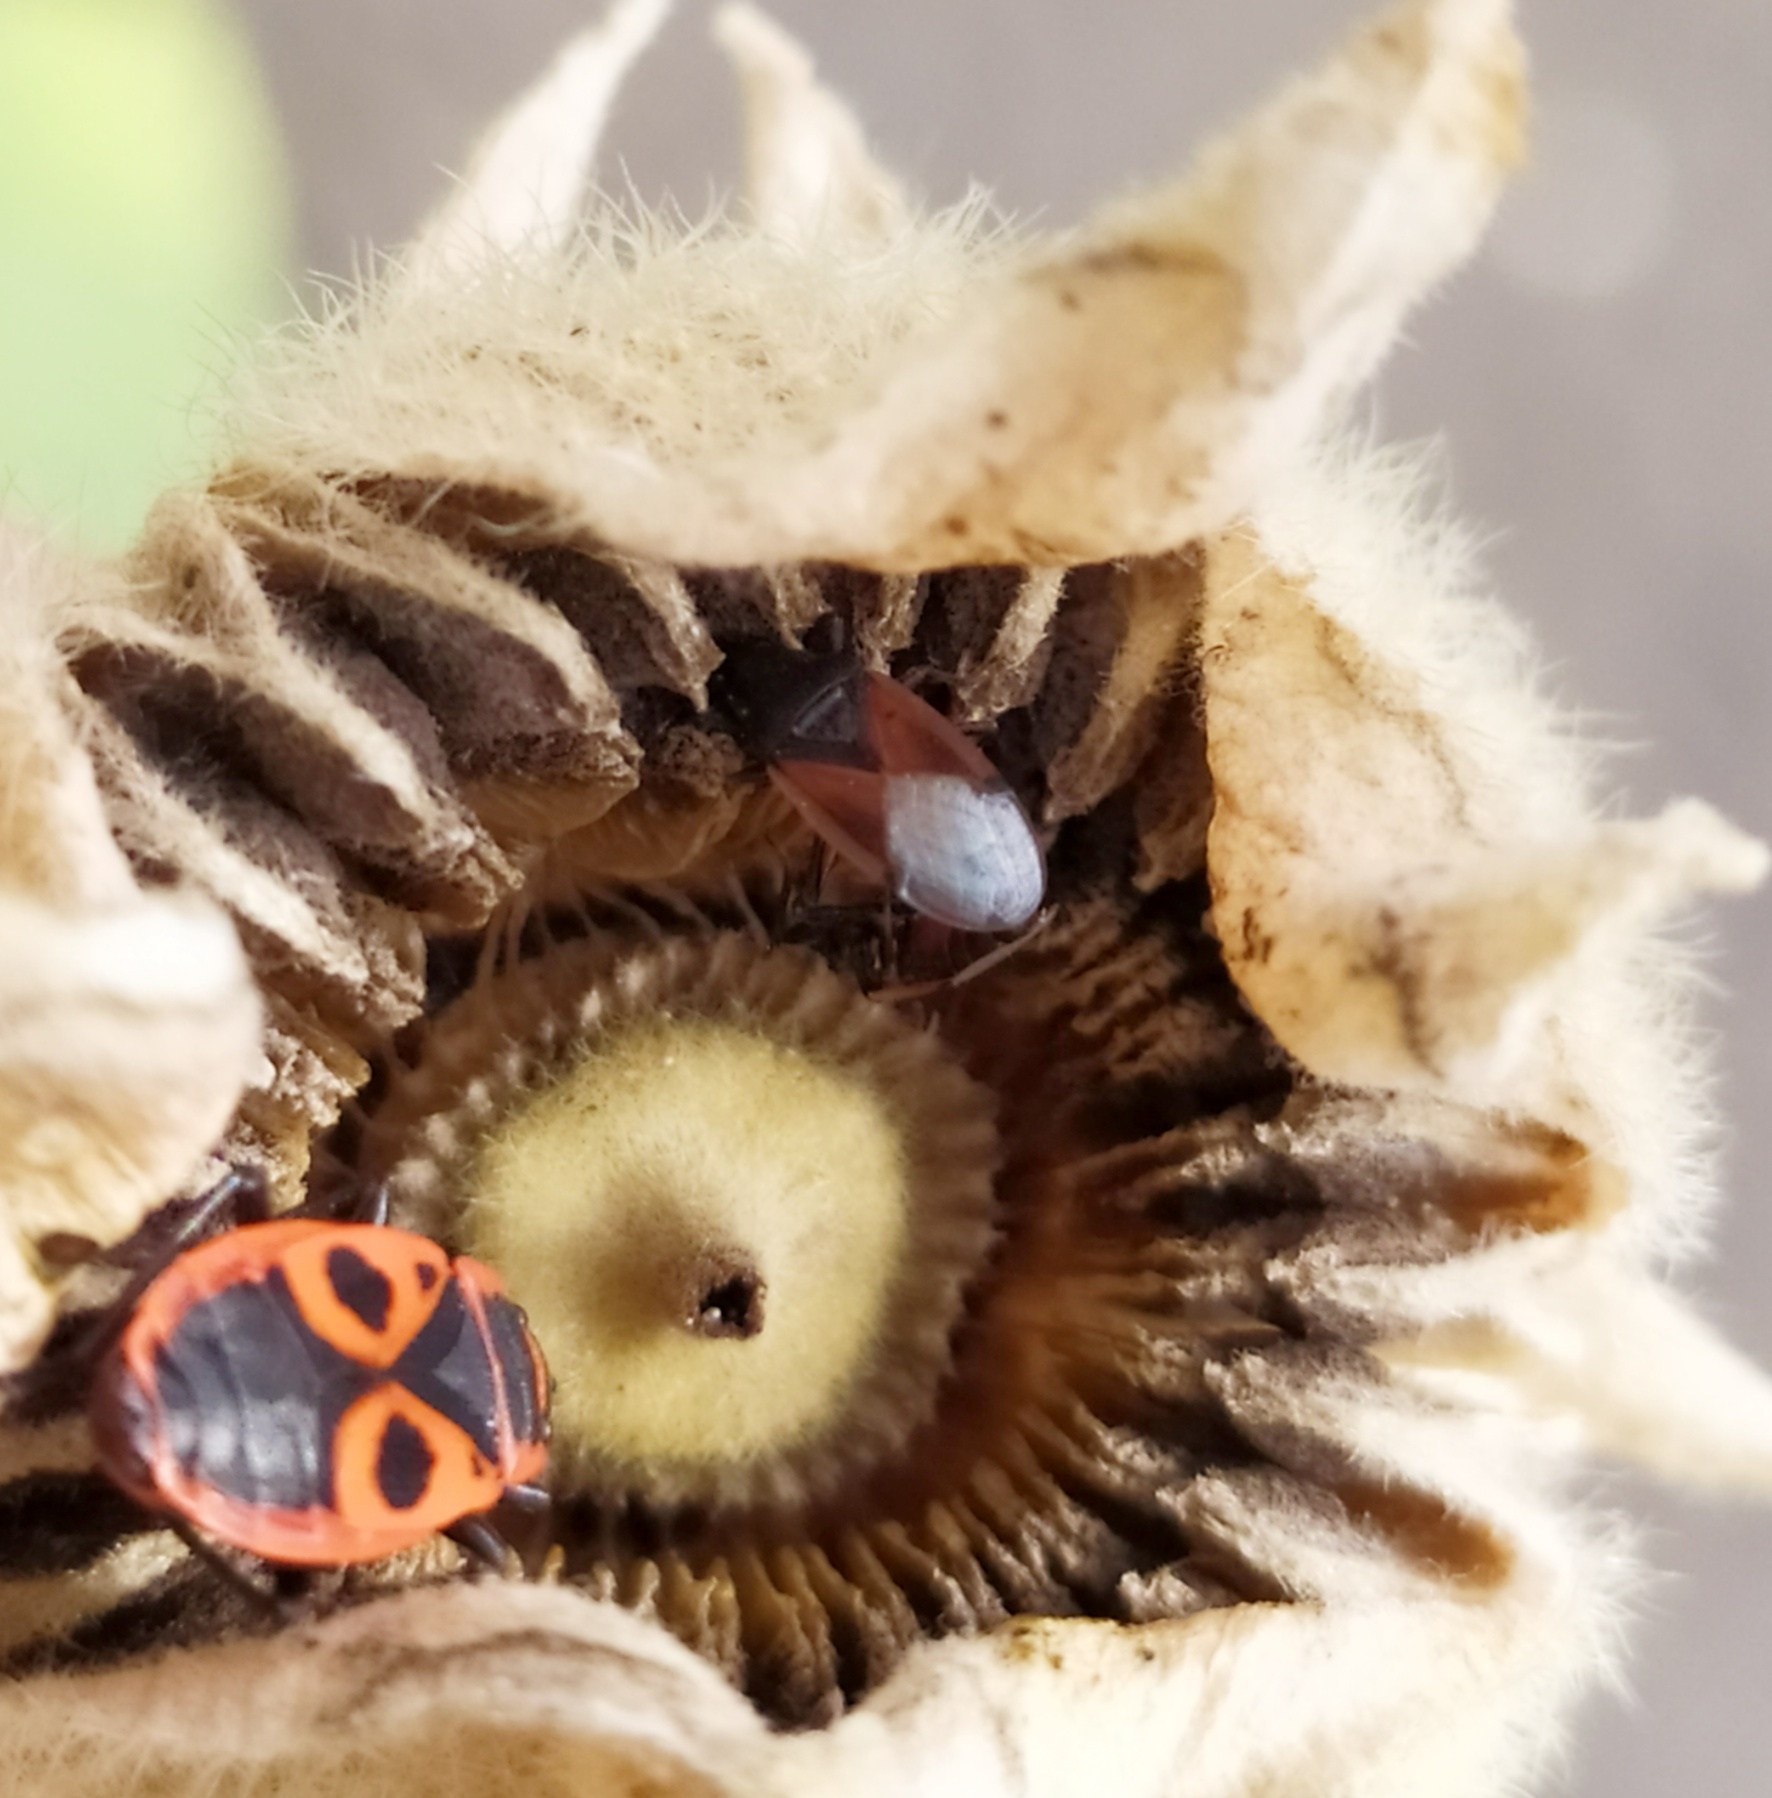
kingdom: Animalia
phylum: Arthropoda
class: Insecta
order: Hemiptera
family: Oxycarenidae
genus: Oxycarenus
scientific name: Oxycarenus lavaterae
